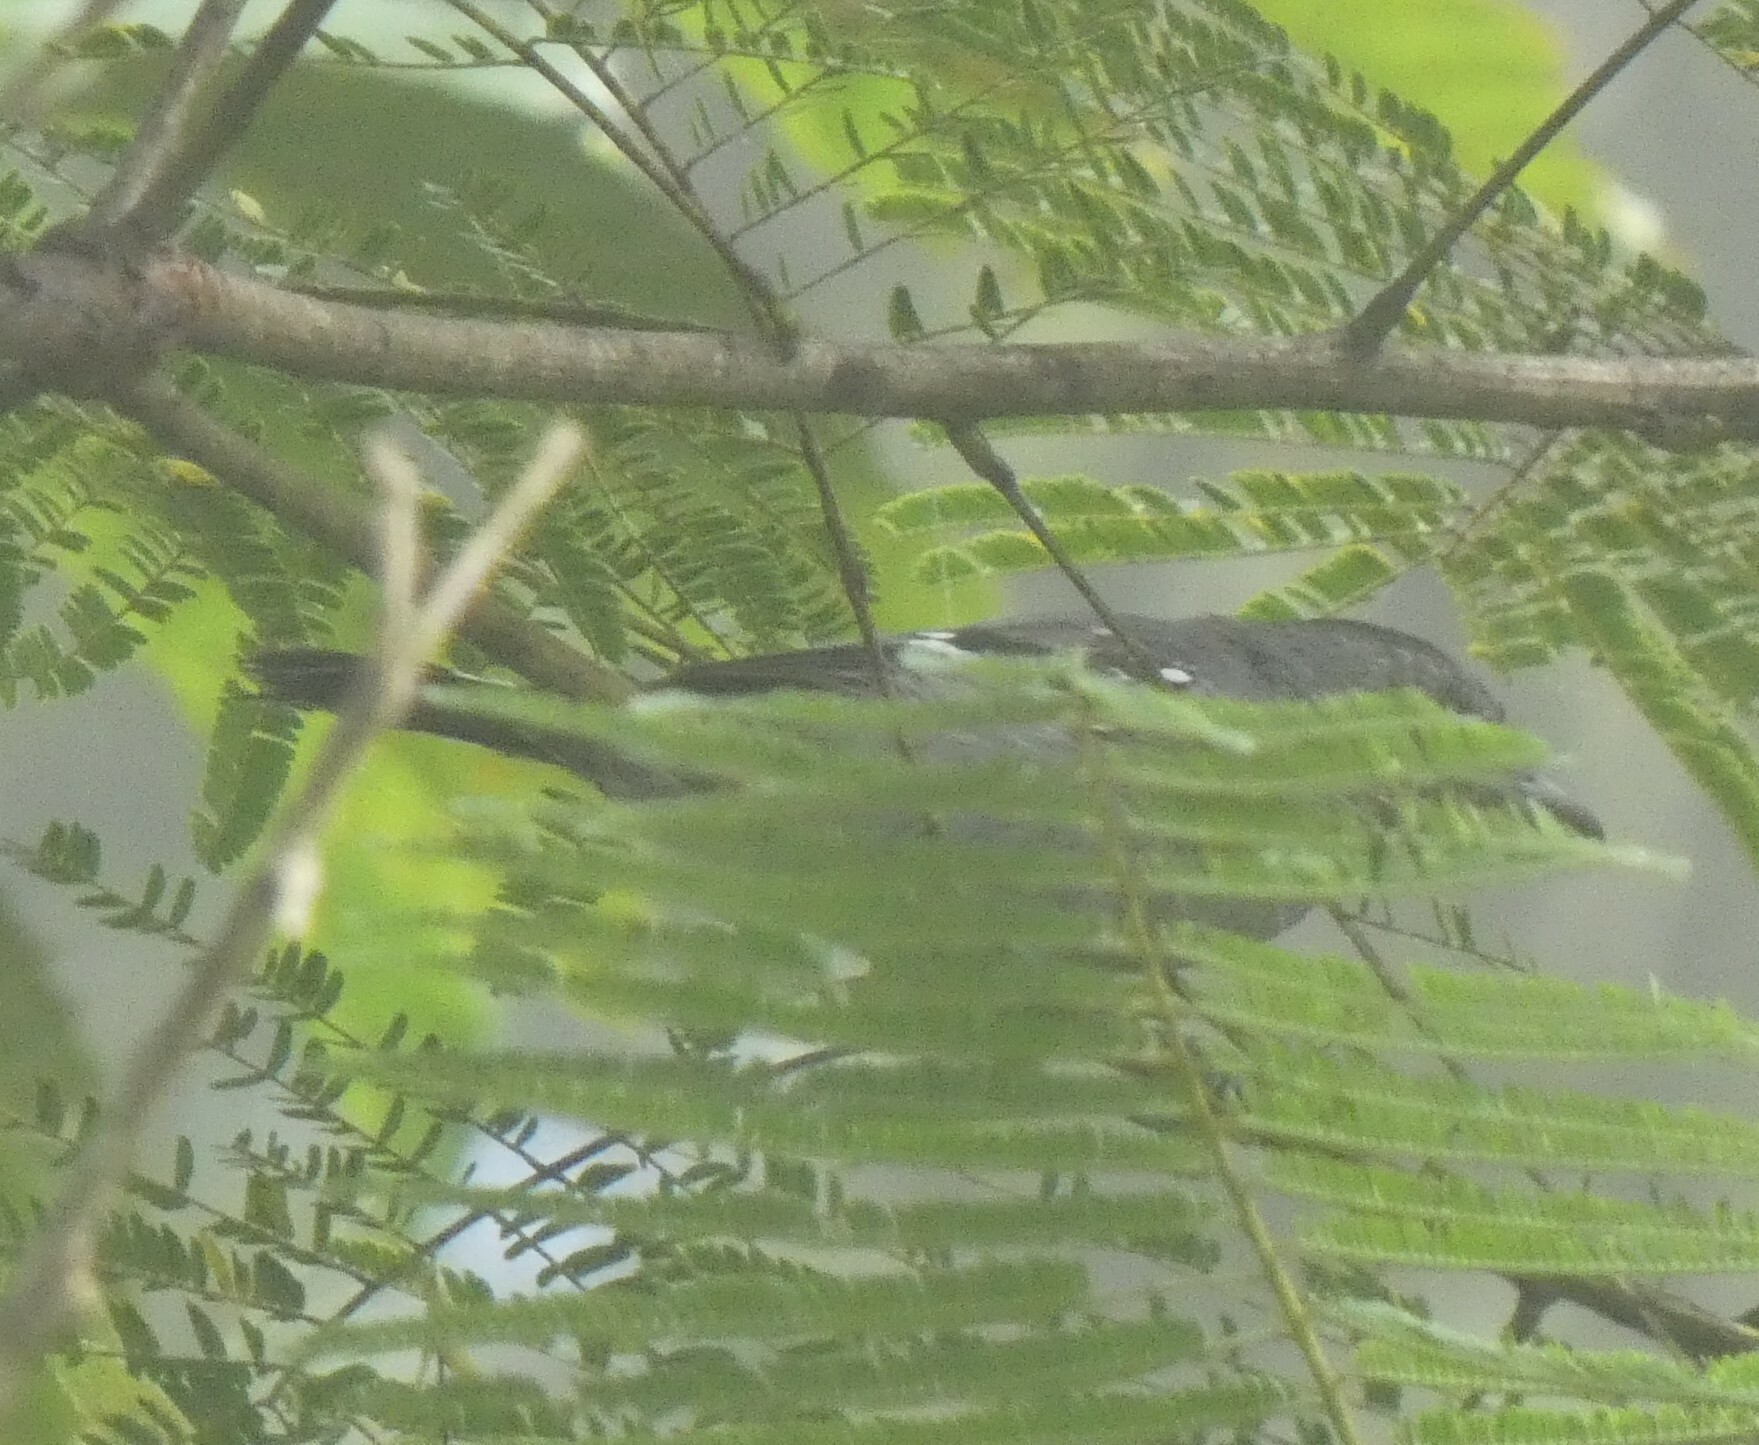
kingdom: Animalia
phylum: Chordata
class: Aves
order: Passeriformes
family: Thamnophilidae
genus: Thamnophilus
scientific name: Thamnophilus caerulescens
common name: Variable antshrike
